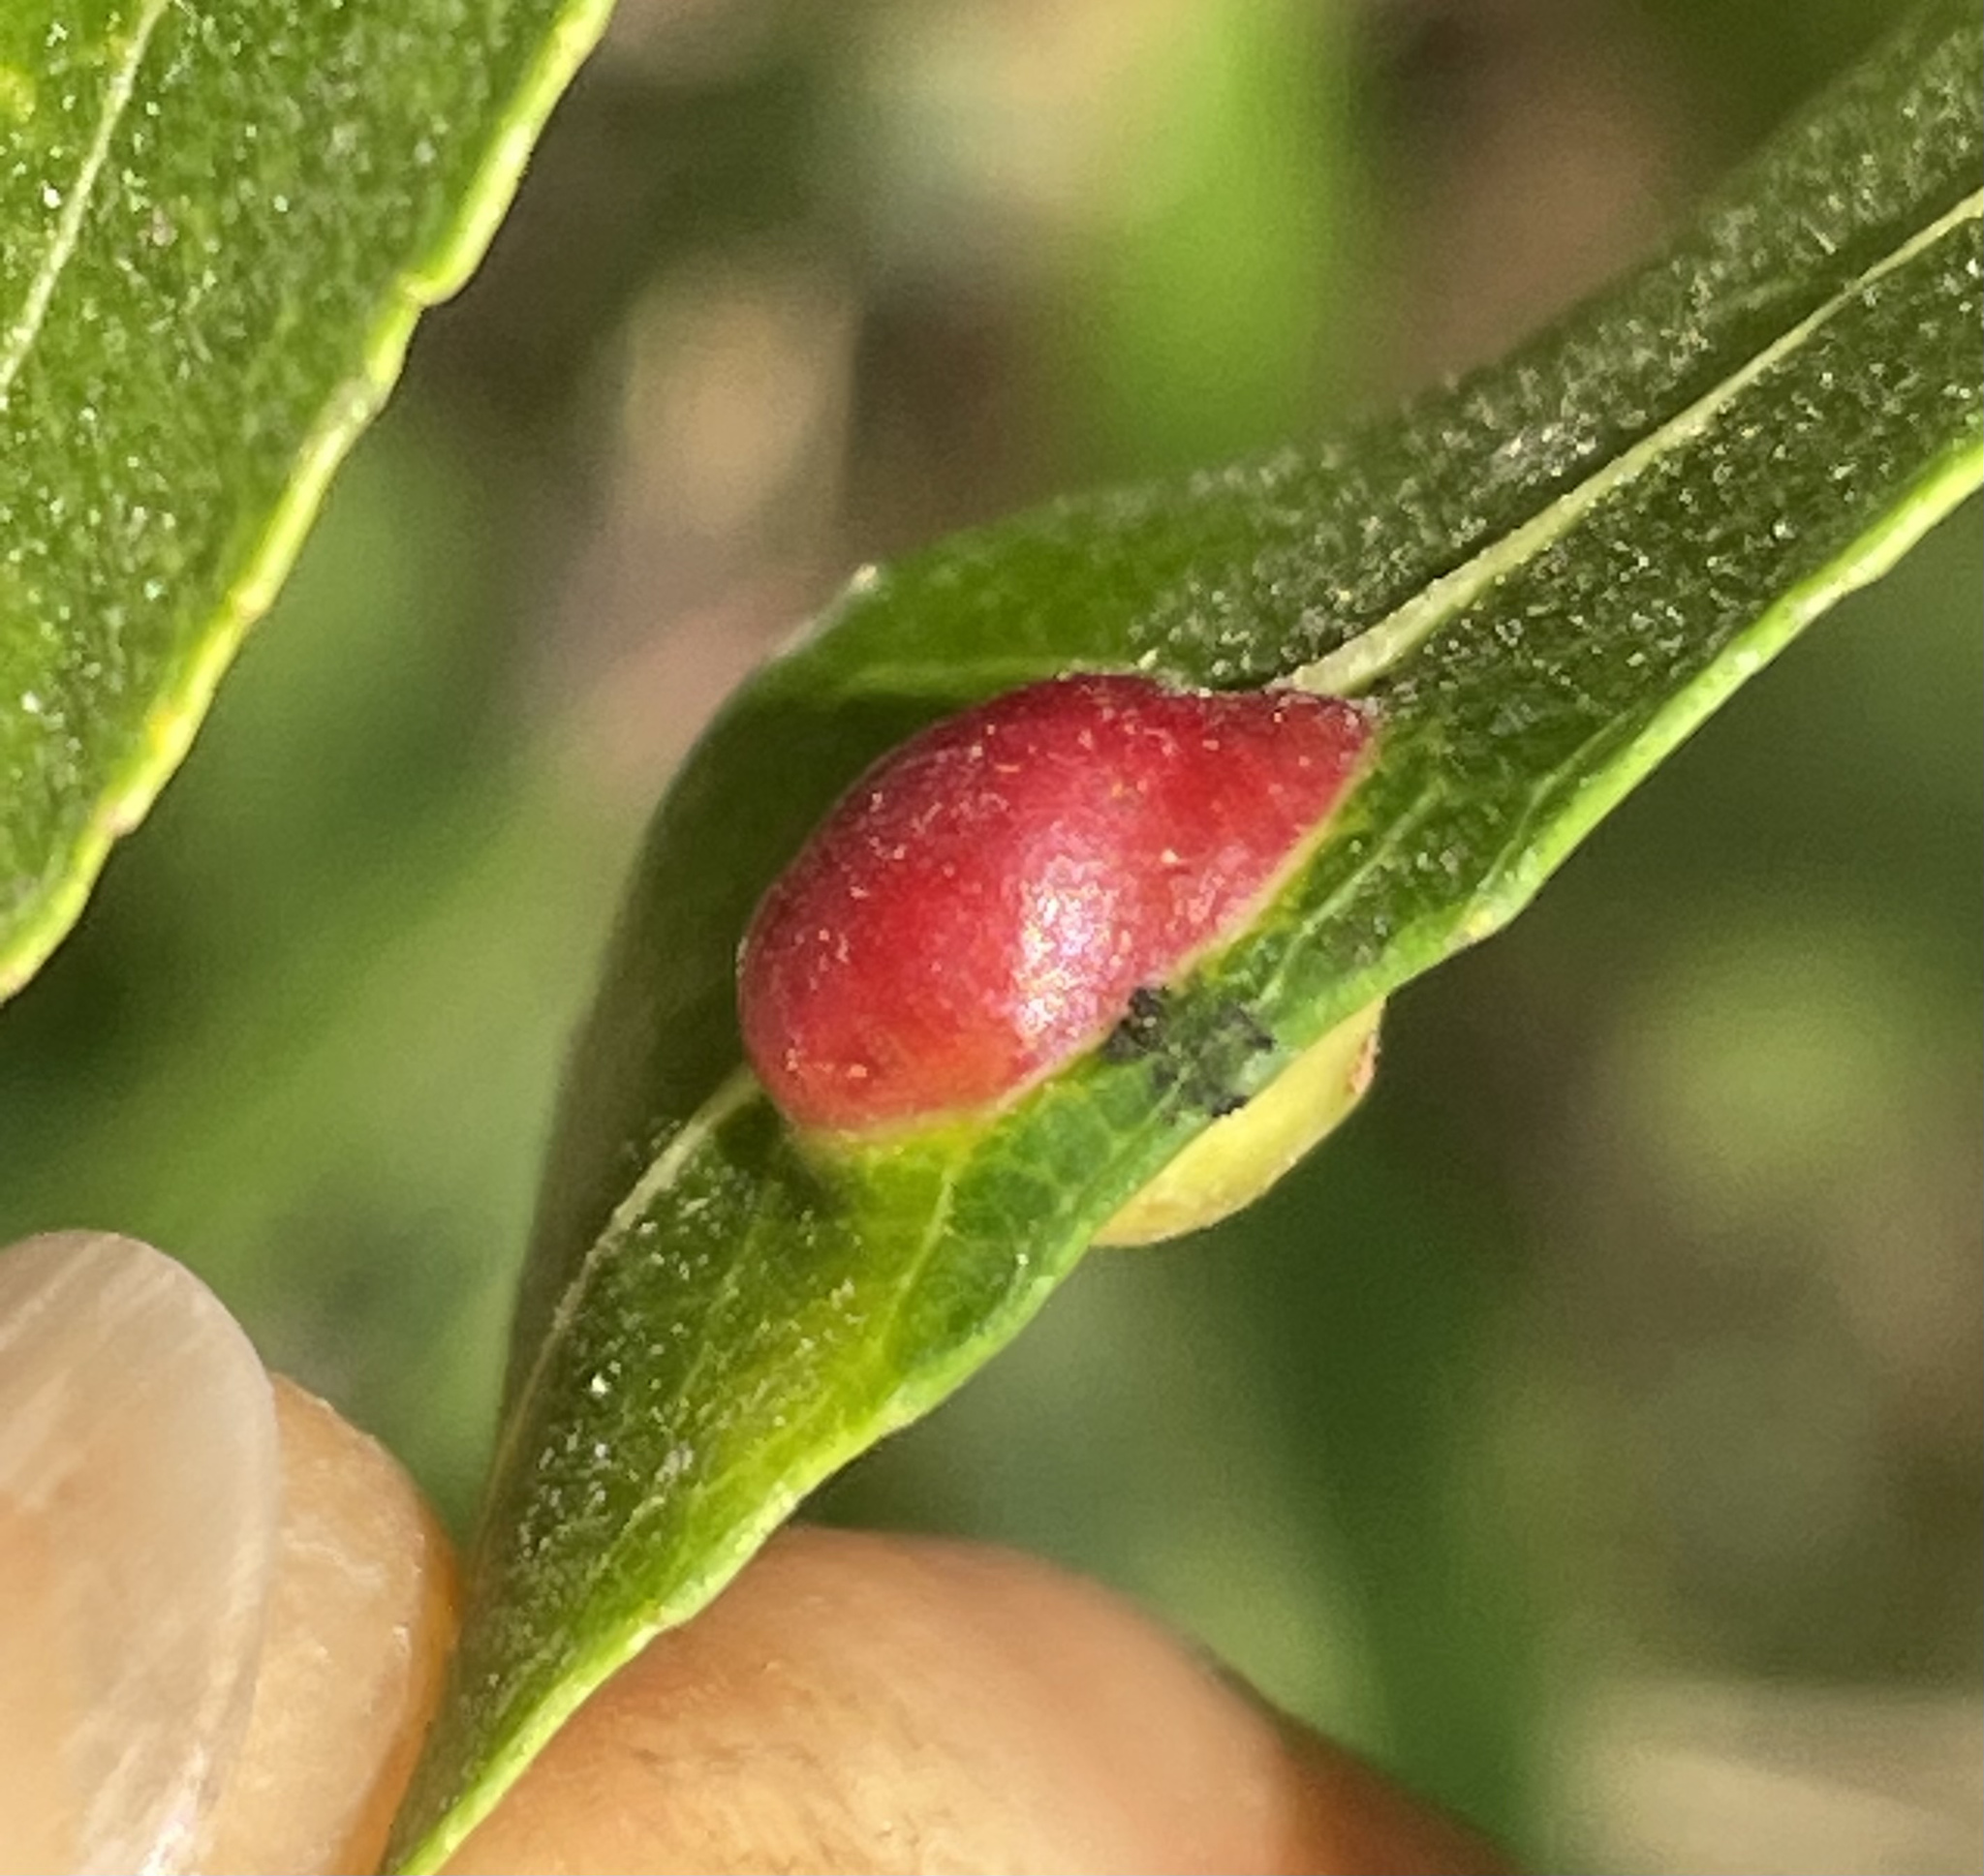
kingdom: Animalia
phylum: Arthropoda
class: Insecta
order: Hymenoptera
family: Tenthredinidae
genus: Euura
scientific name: Euura
